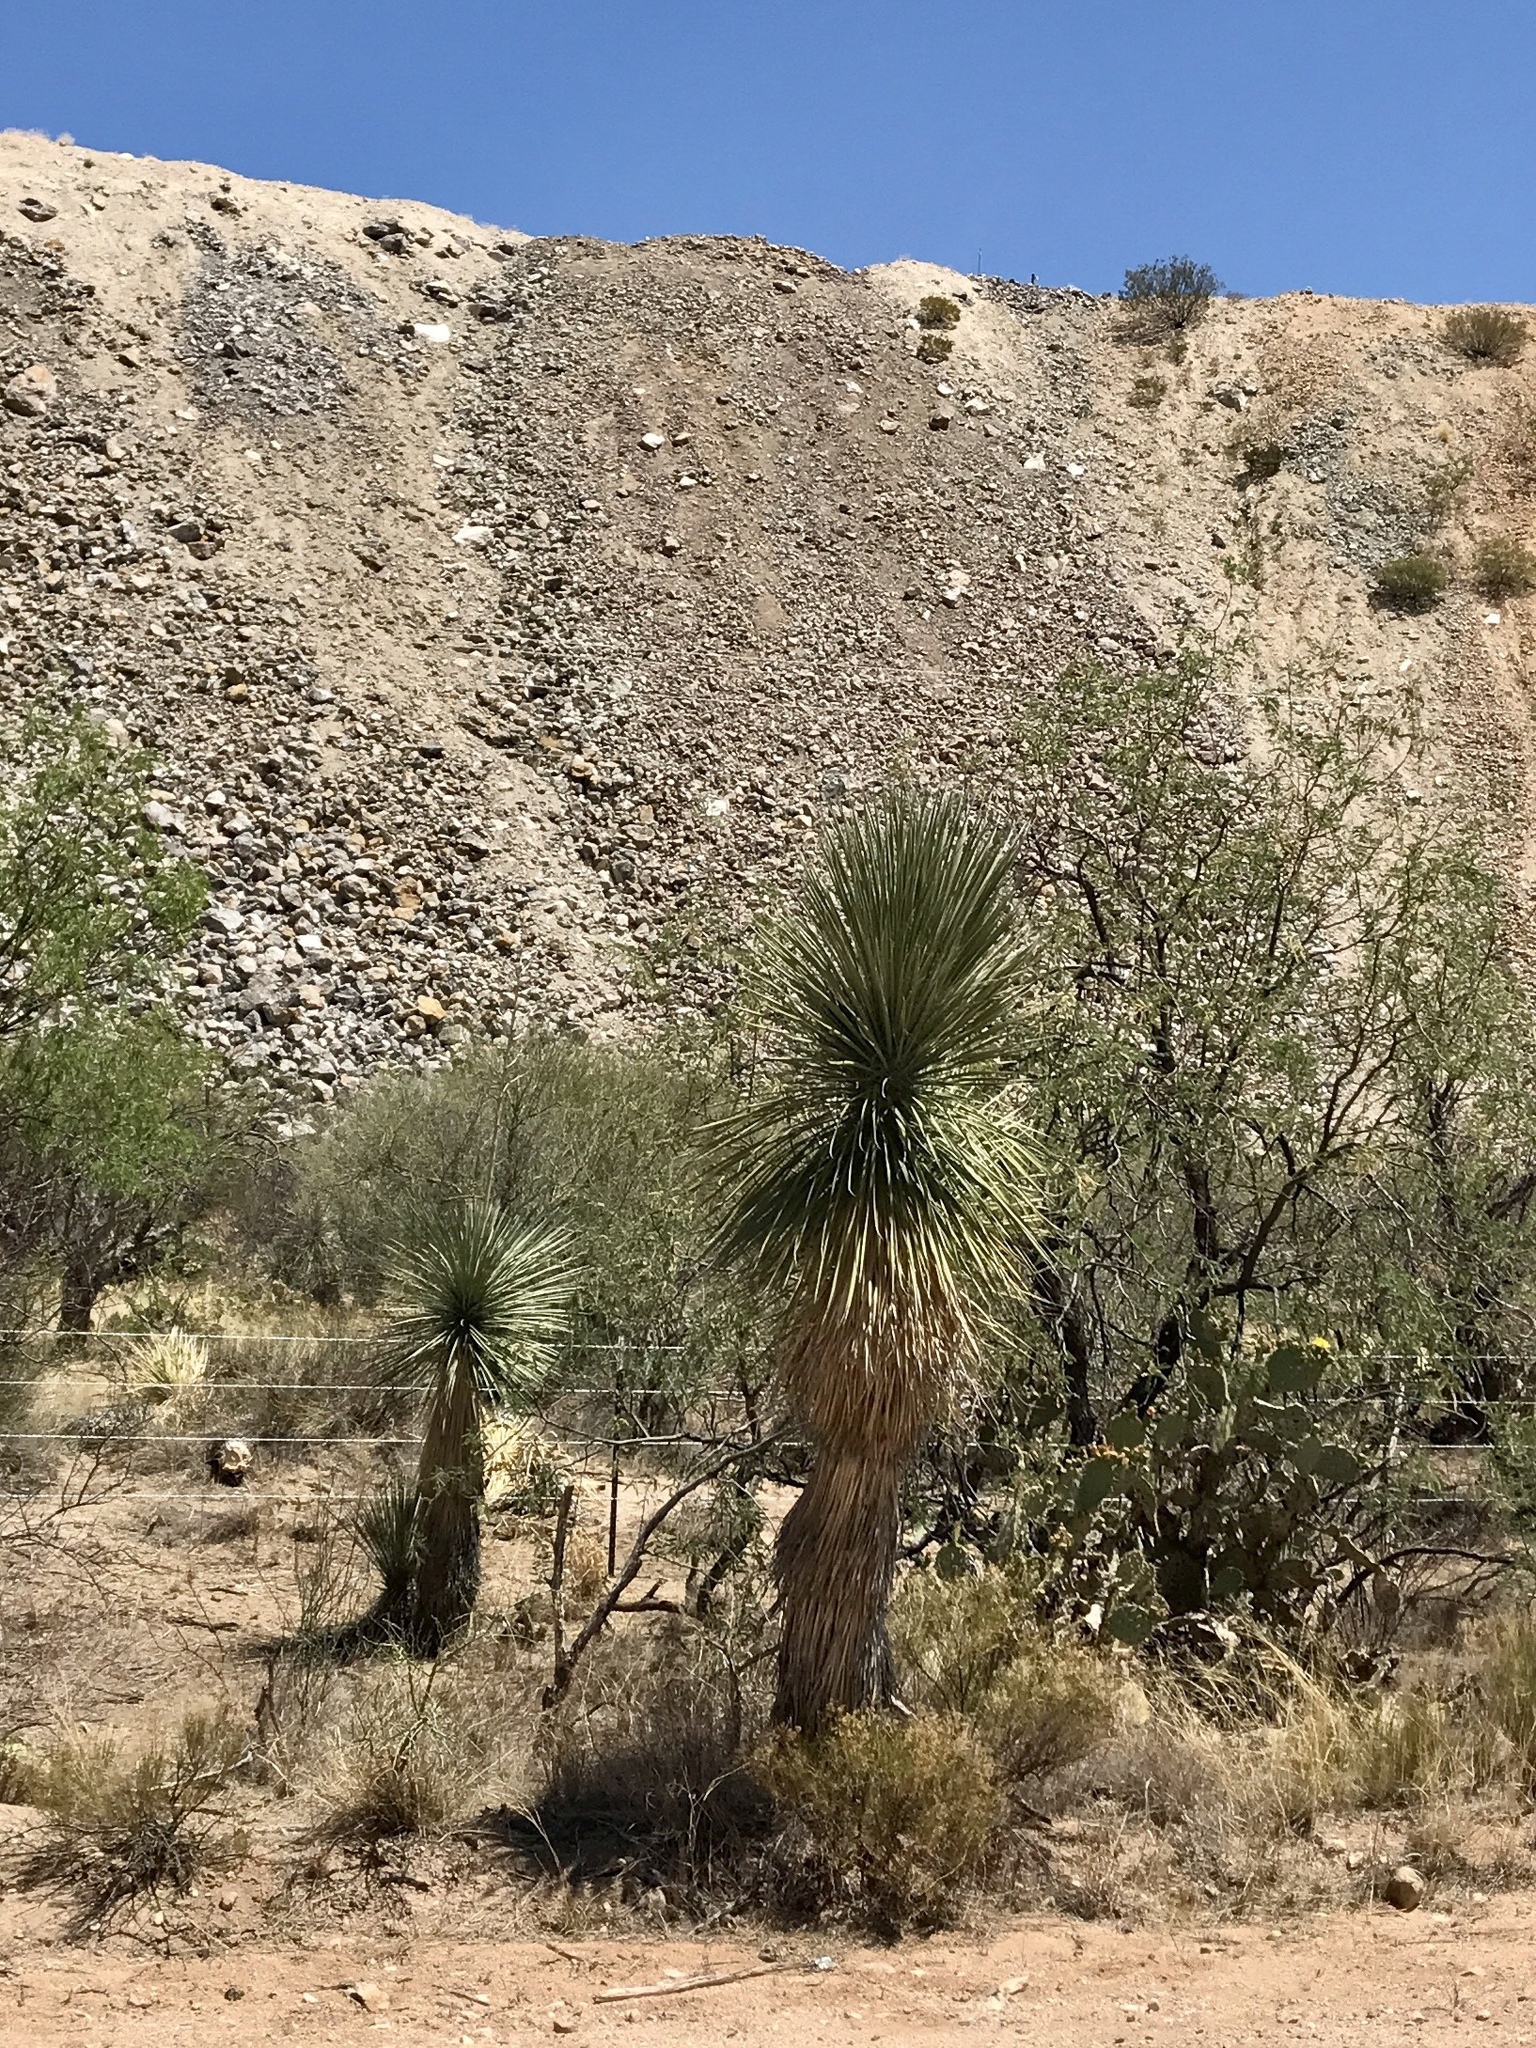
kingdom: Plantae
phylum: Tracheophyta
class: Liliopsida
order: Asparagales
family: Asparagaceae
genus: Yucca
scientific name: Yucca elata
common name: Palmella
